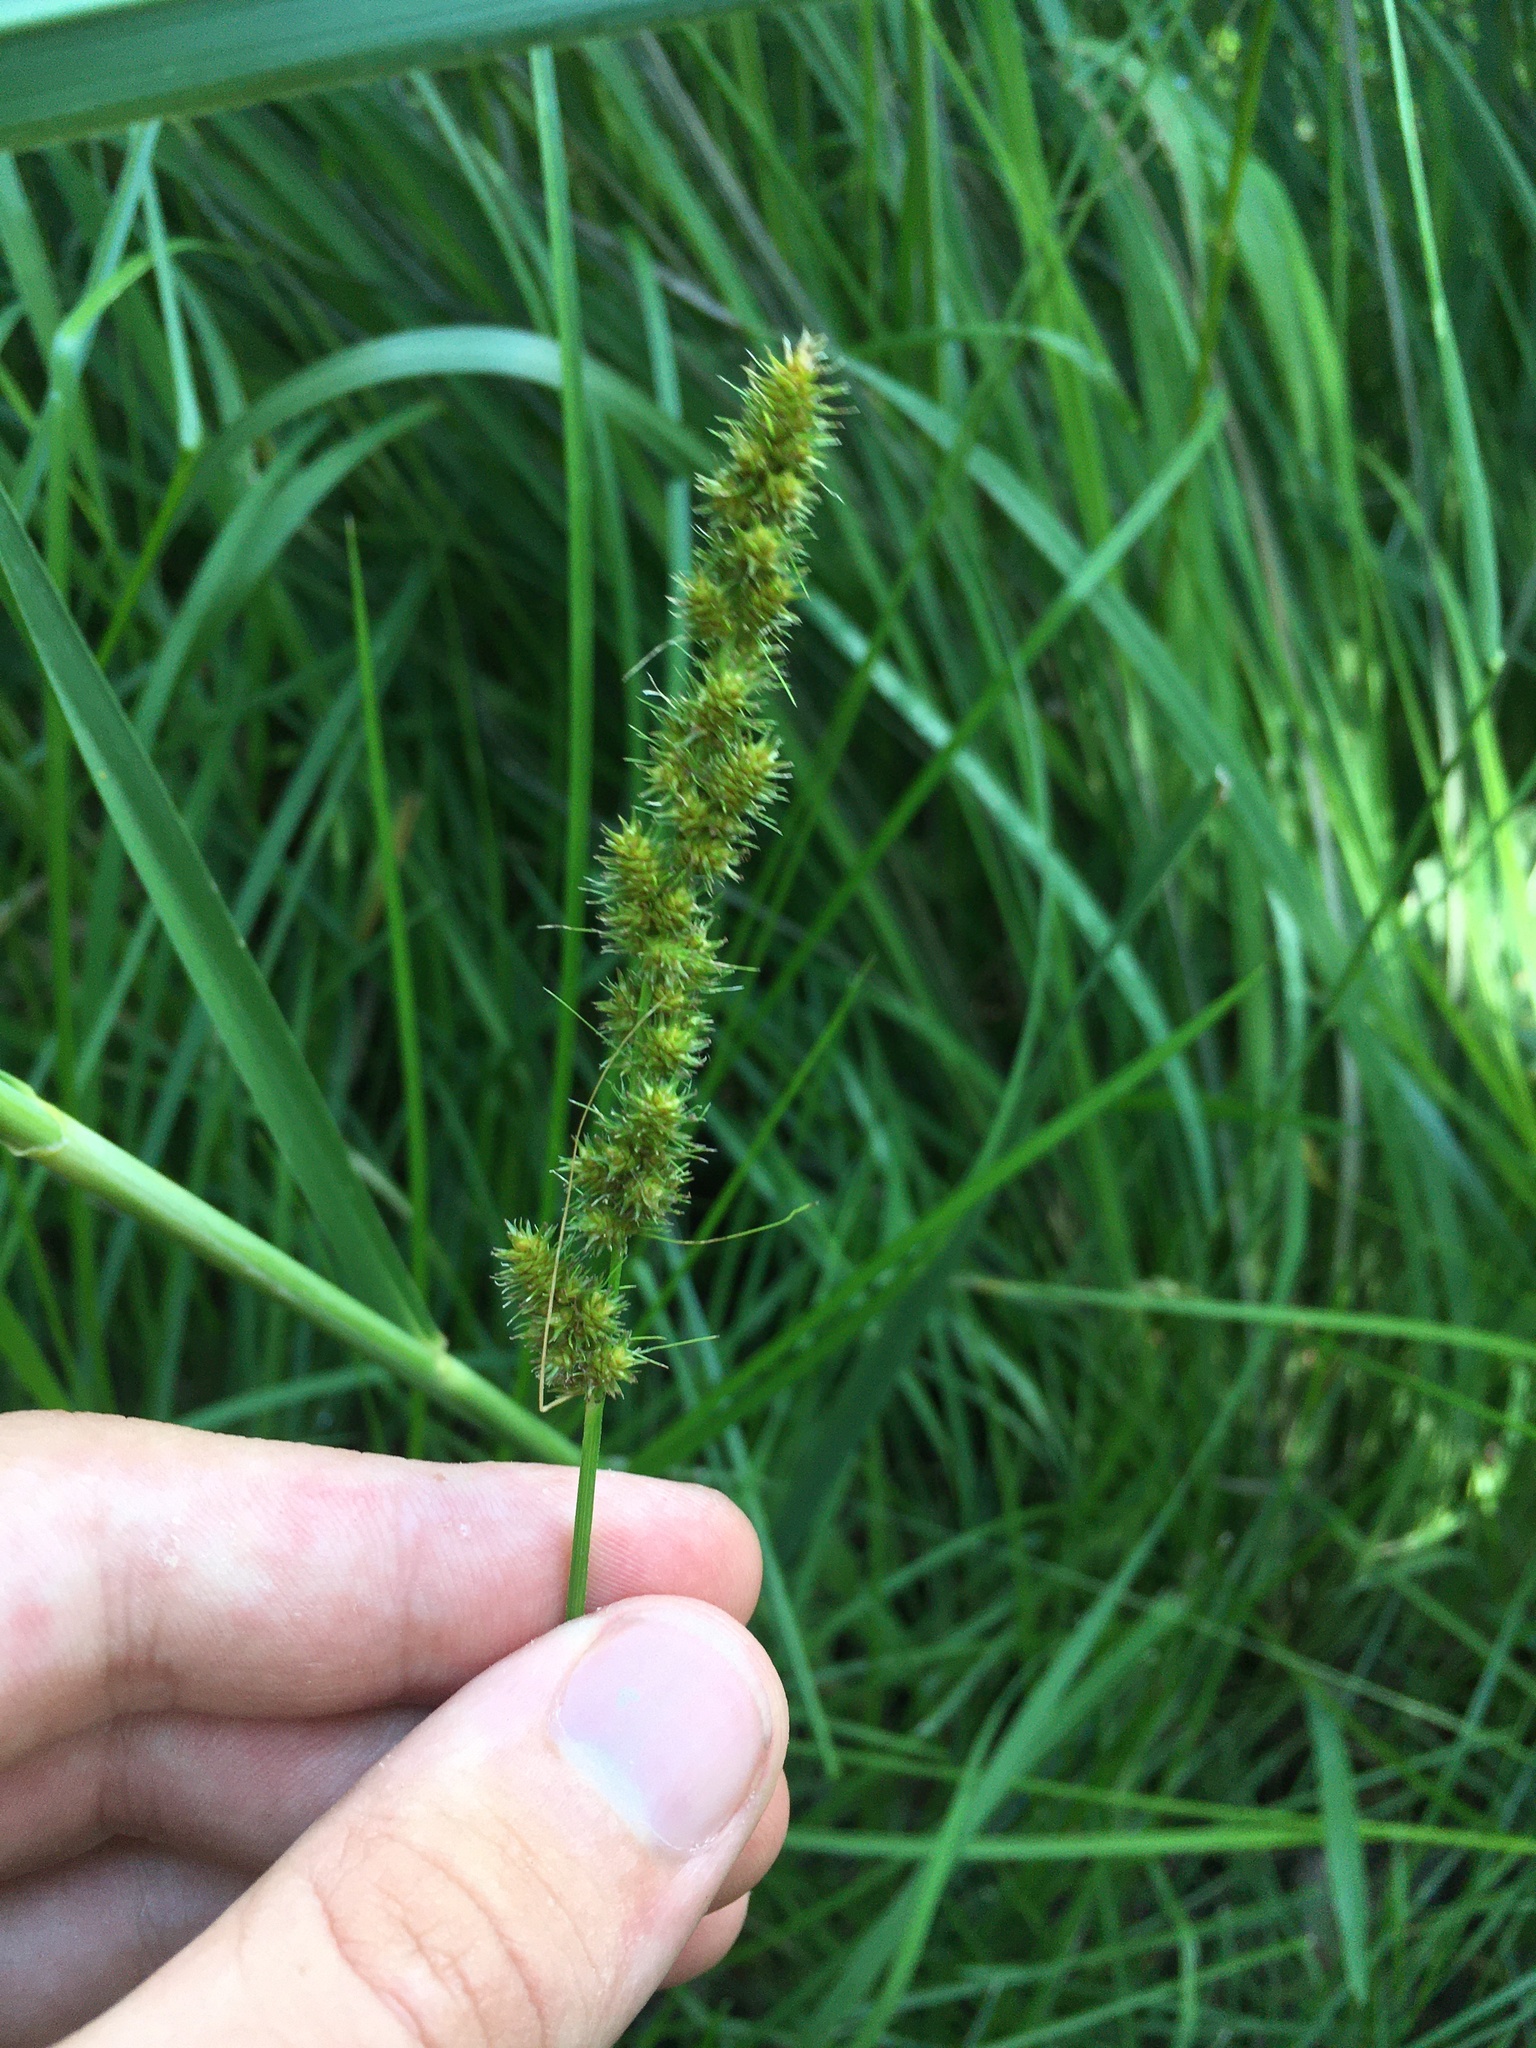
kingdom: Plantae
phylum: Tracheophyta
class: Liliopsida
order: Poales
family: Cyperaceae
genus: Carex
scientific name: Carex vulpinoidea
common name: American fox-sedge
